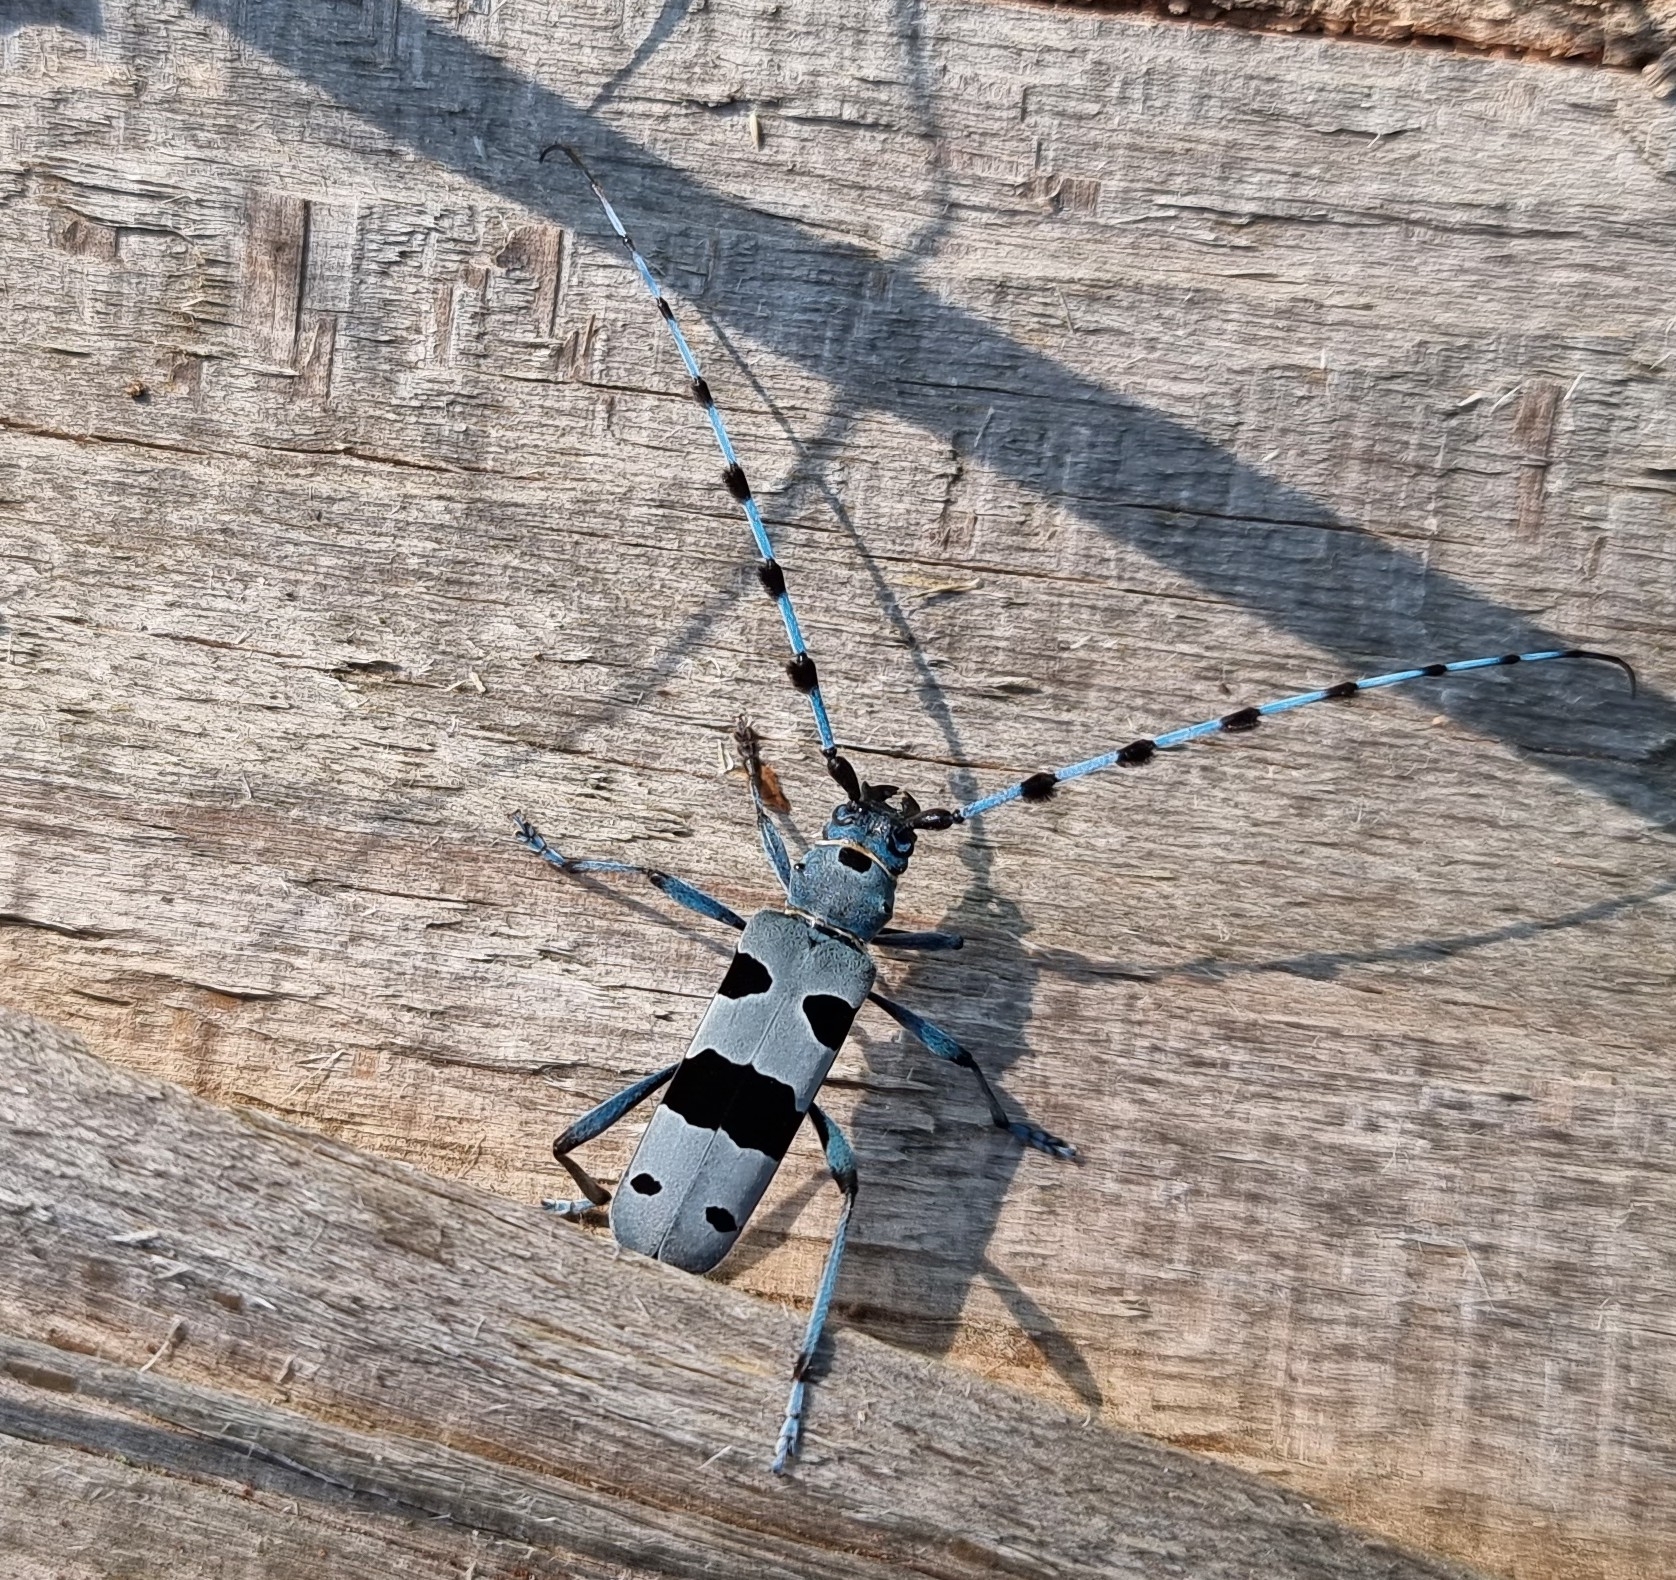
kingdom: Animalia
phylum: Arthropoda
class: Insecta
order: Coleoptera
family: Cerambycidae
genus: Rosalia
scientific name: Rosalia alpina
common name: Rosalia longicorn
